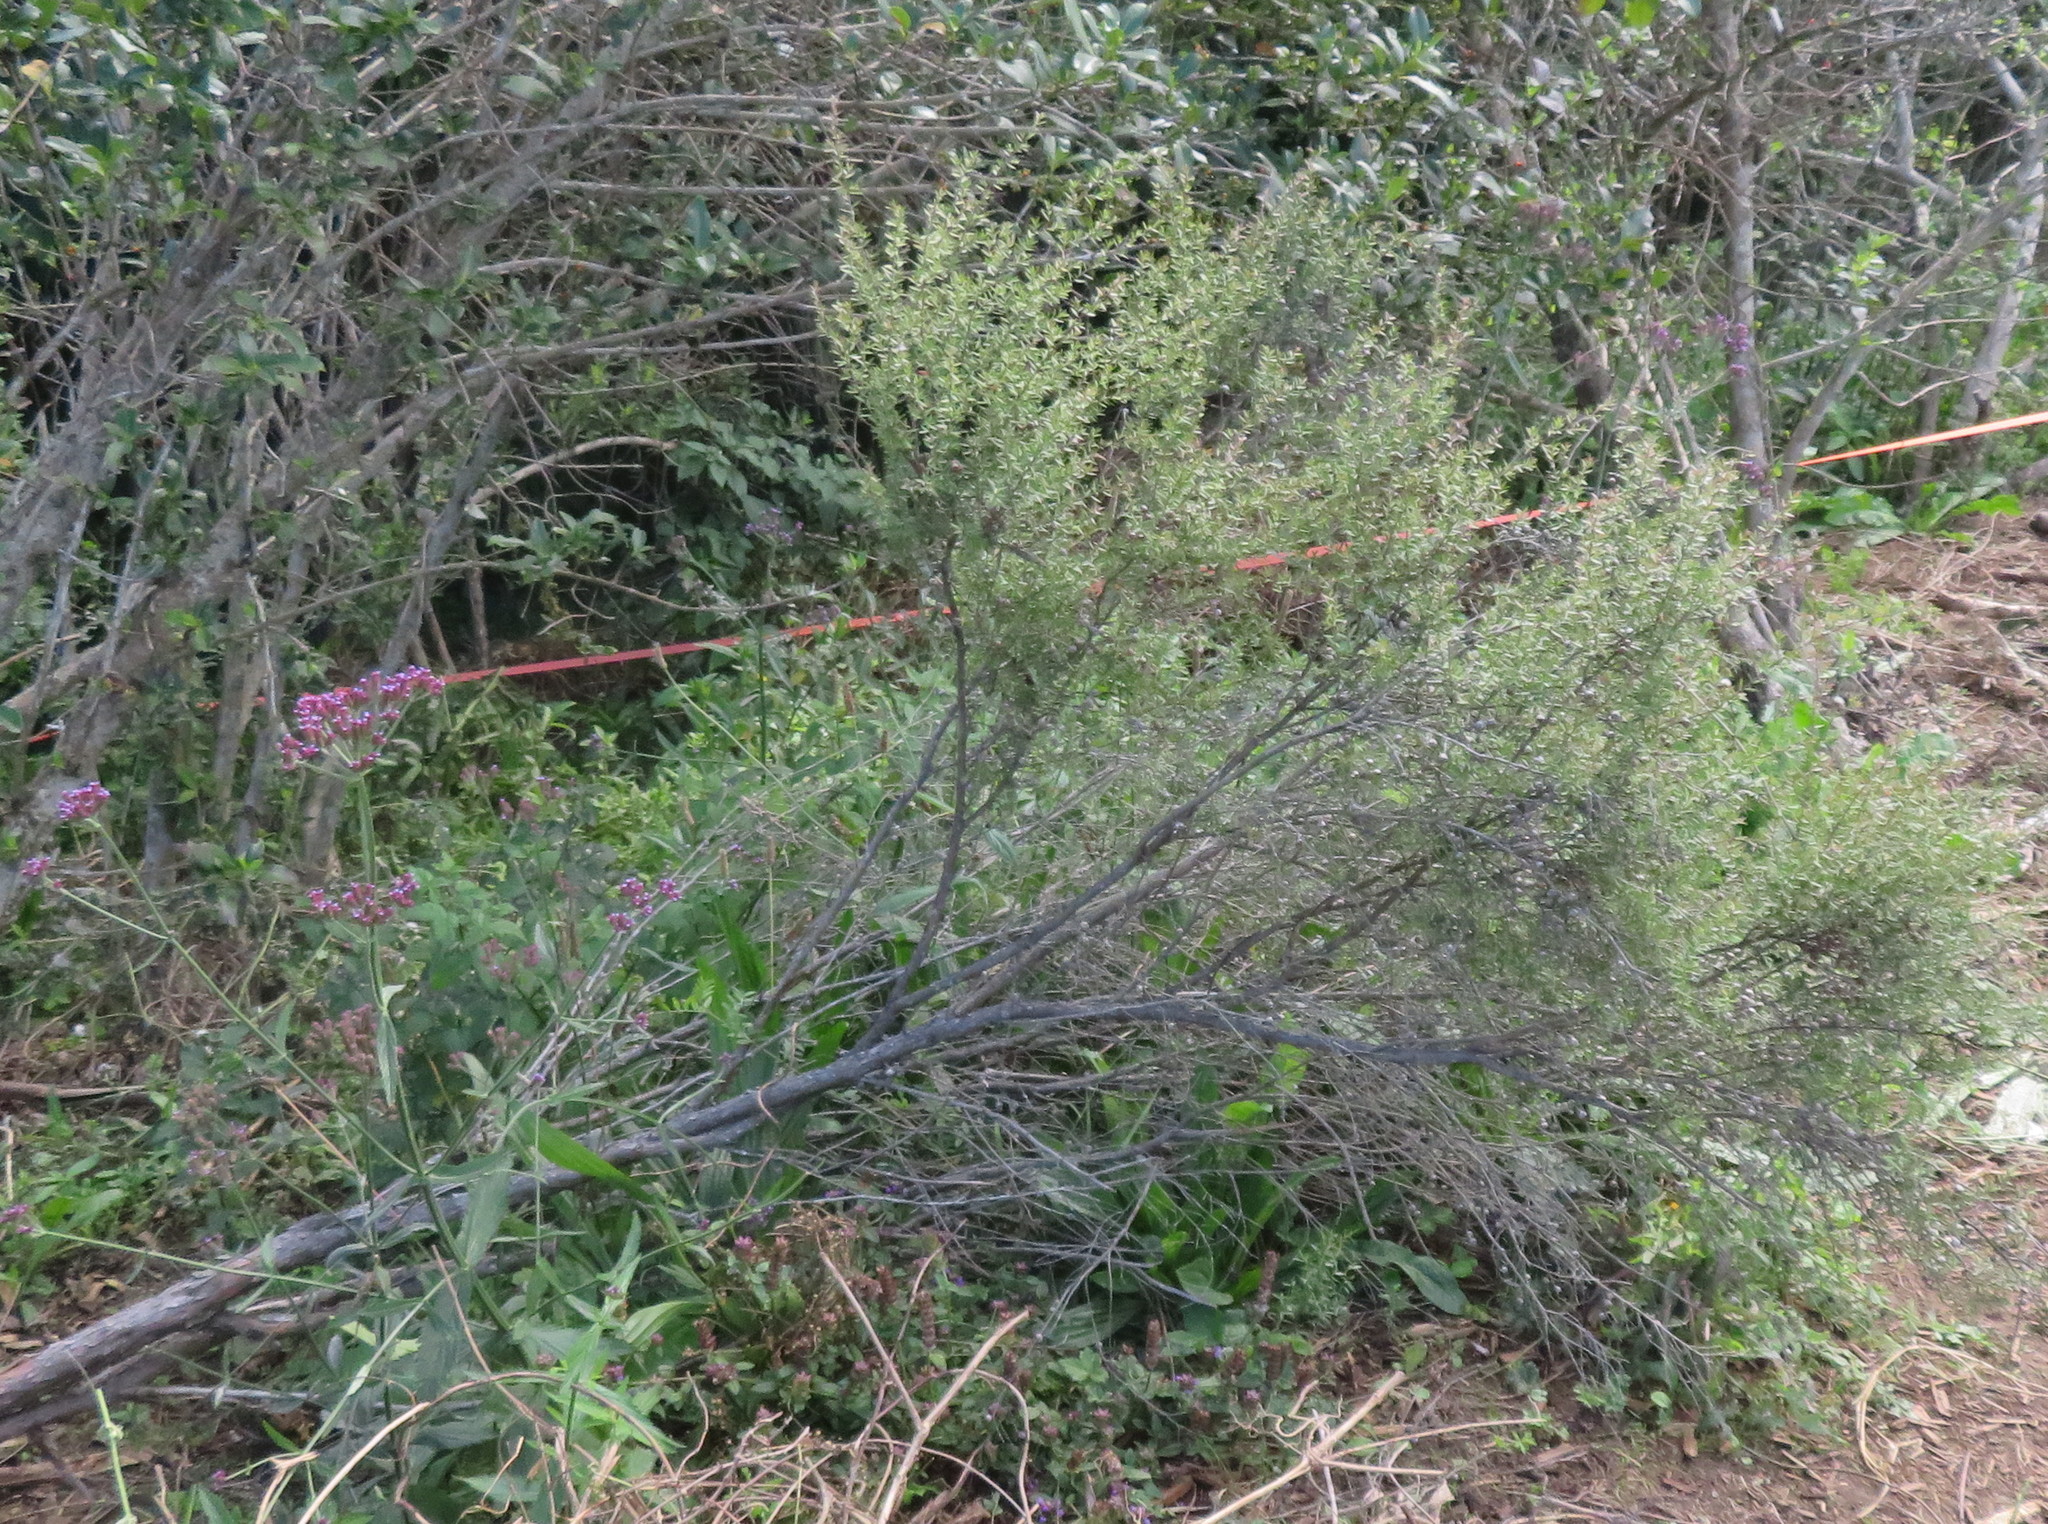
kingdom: Plantae
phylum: Tracheophyta
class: Magnoliopsida
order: Myrtales
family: Myrtaceae
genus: Leptospermum
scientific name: Leptospermum scoparium
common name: Broom tea-tree
